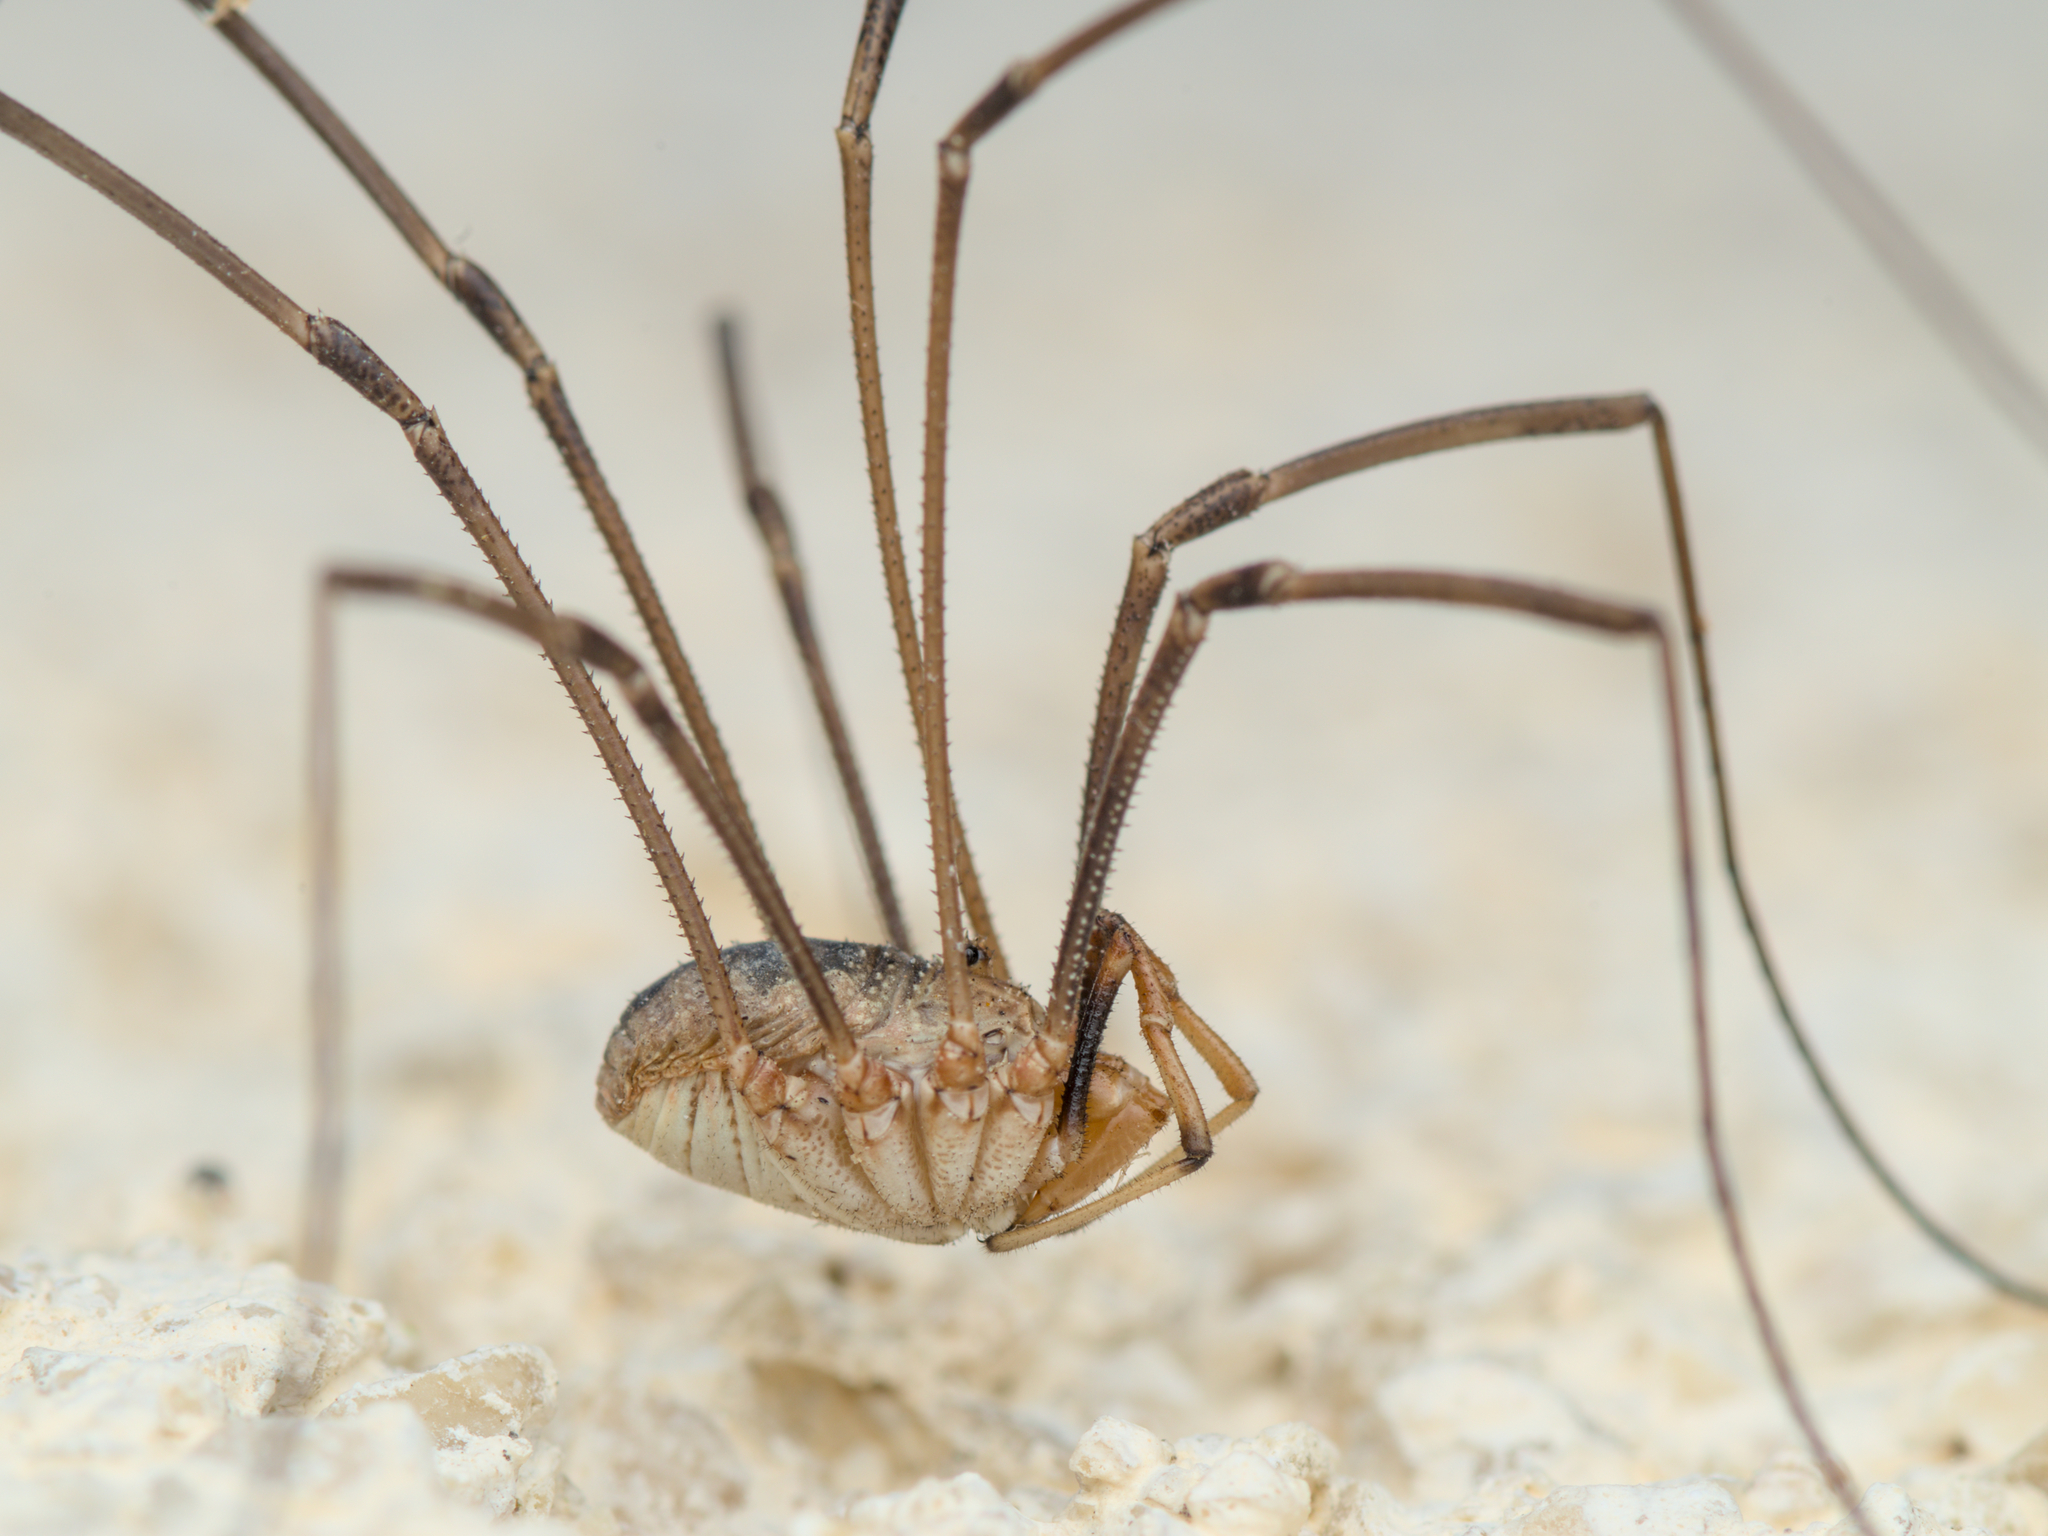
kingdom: Animalia
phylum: Arthropoda
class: Arachnida
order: Opiliones
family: Phalangiidae
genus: Phalangium
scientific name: Phalangium opilio
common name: Daddy longleg
